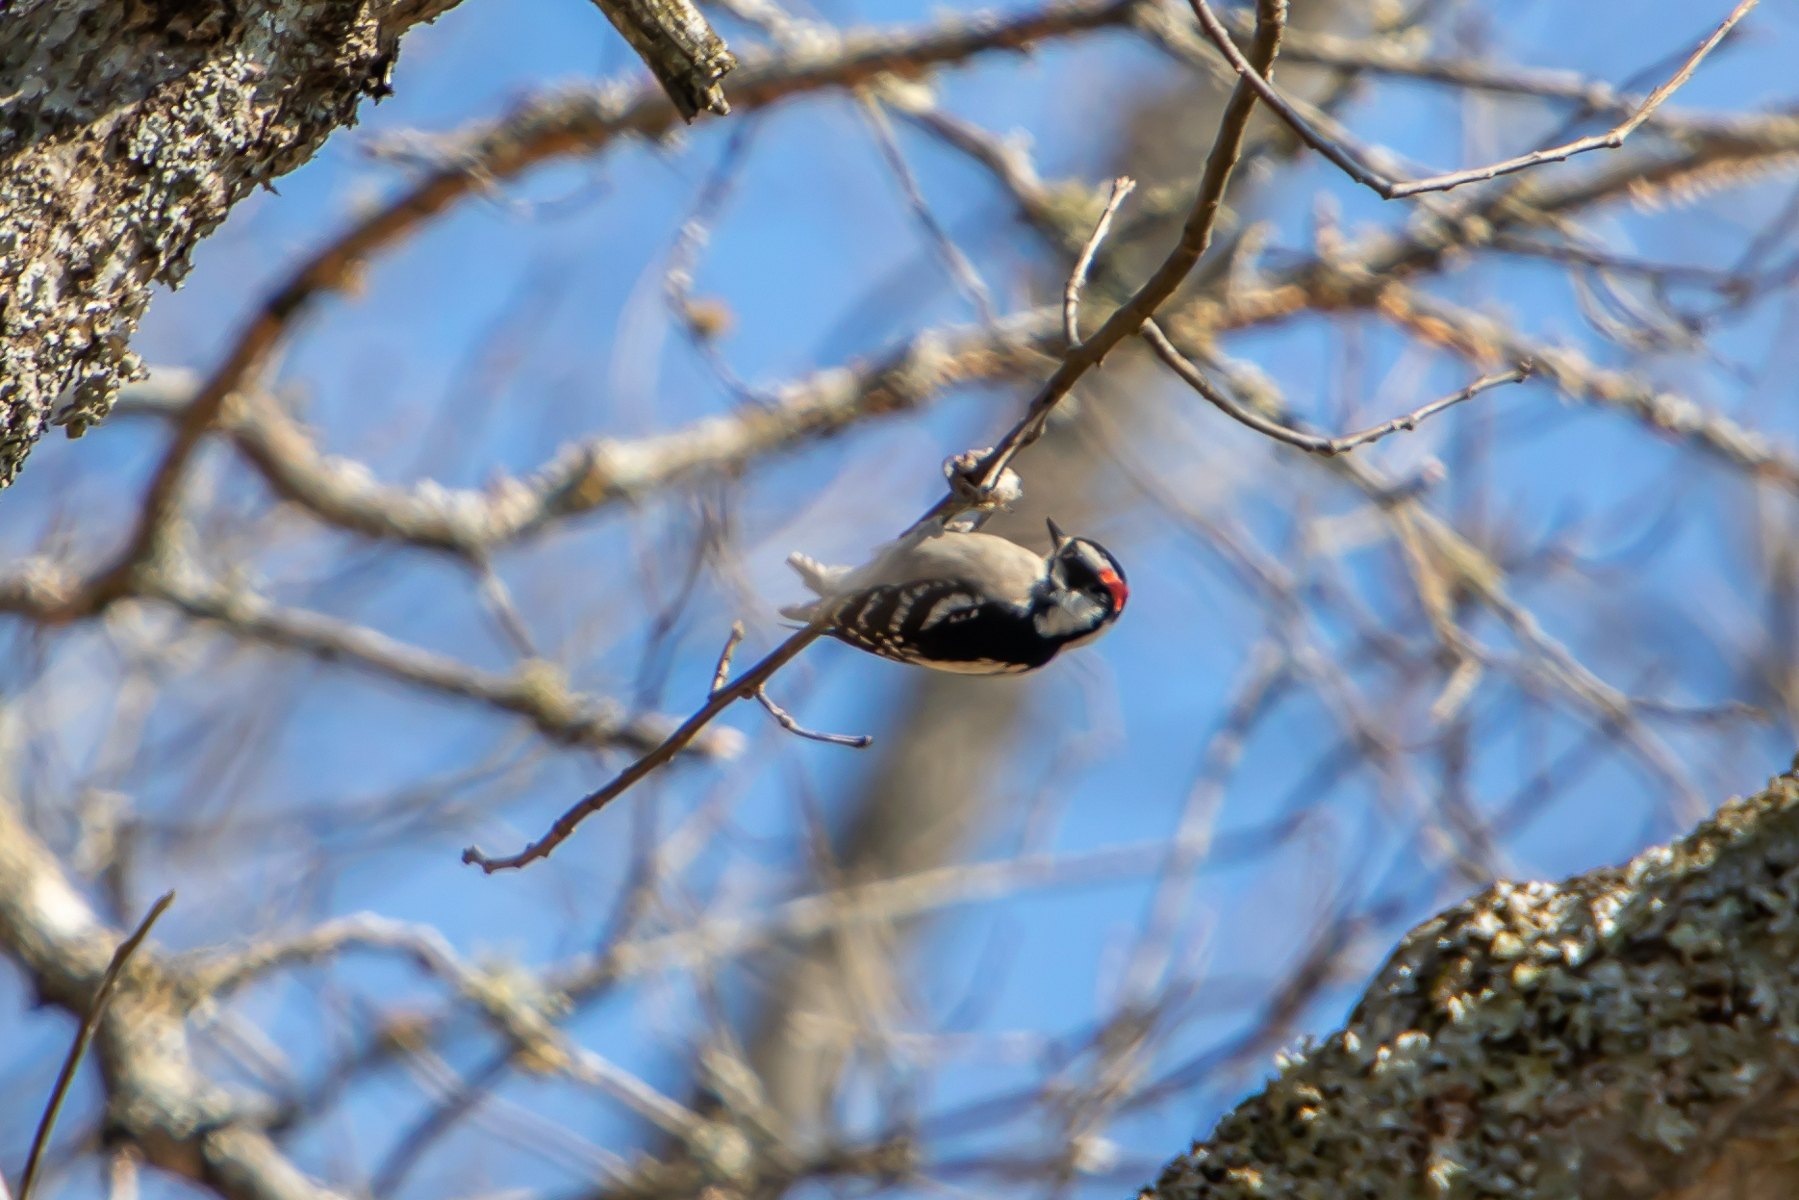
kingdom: Animalia
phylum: Chordata
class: Aves
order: Piciformes
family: Picidae
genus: Dryobates
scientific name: Dryobates pubescens
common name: Downy woodpecker
